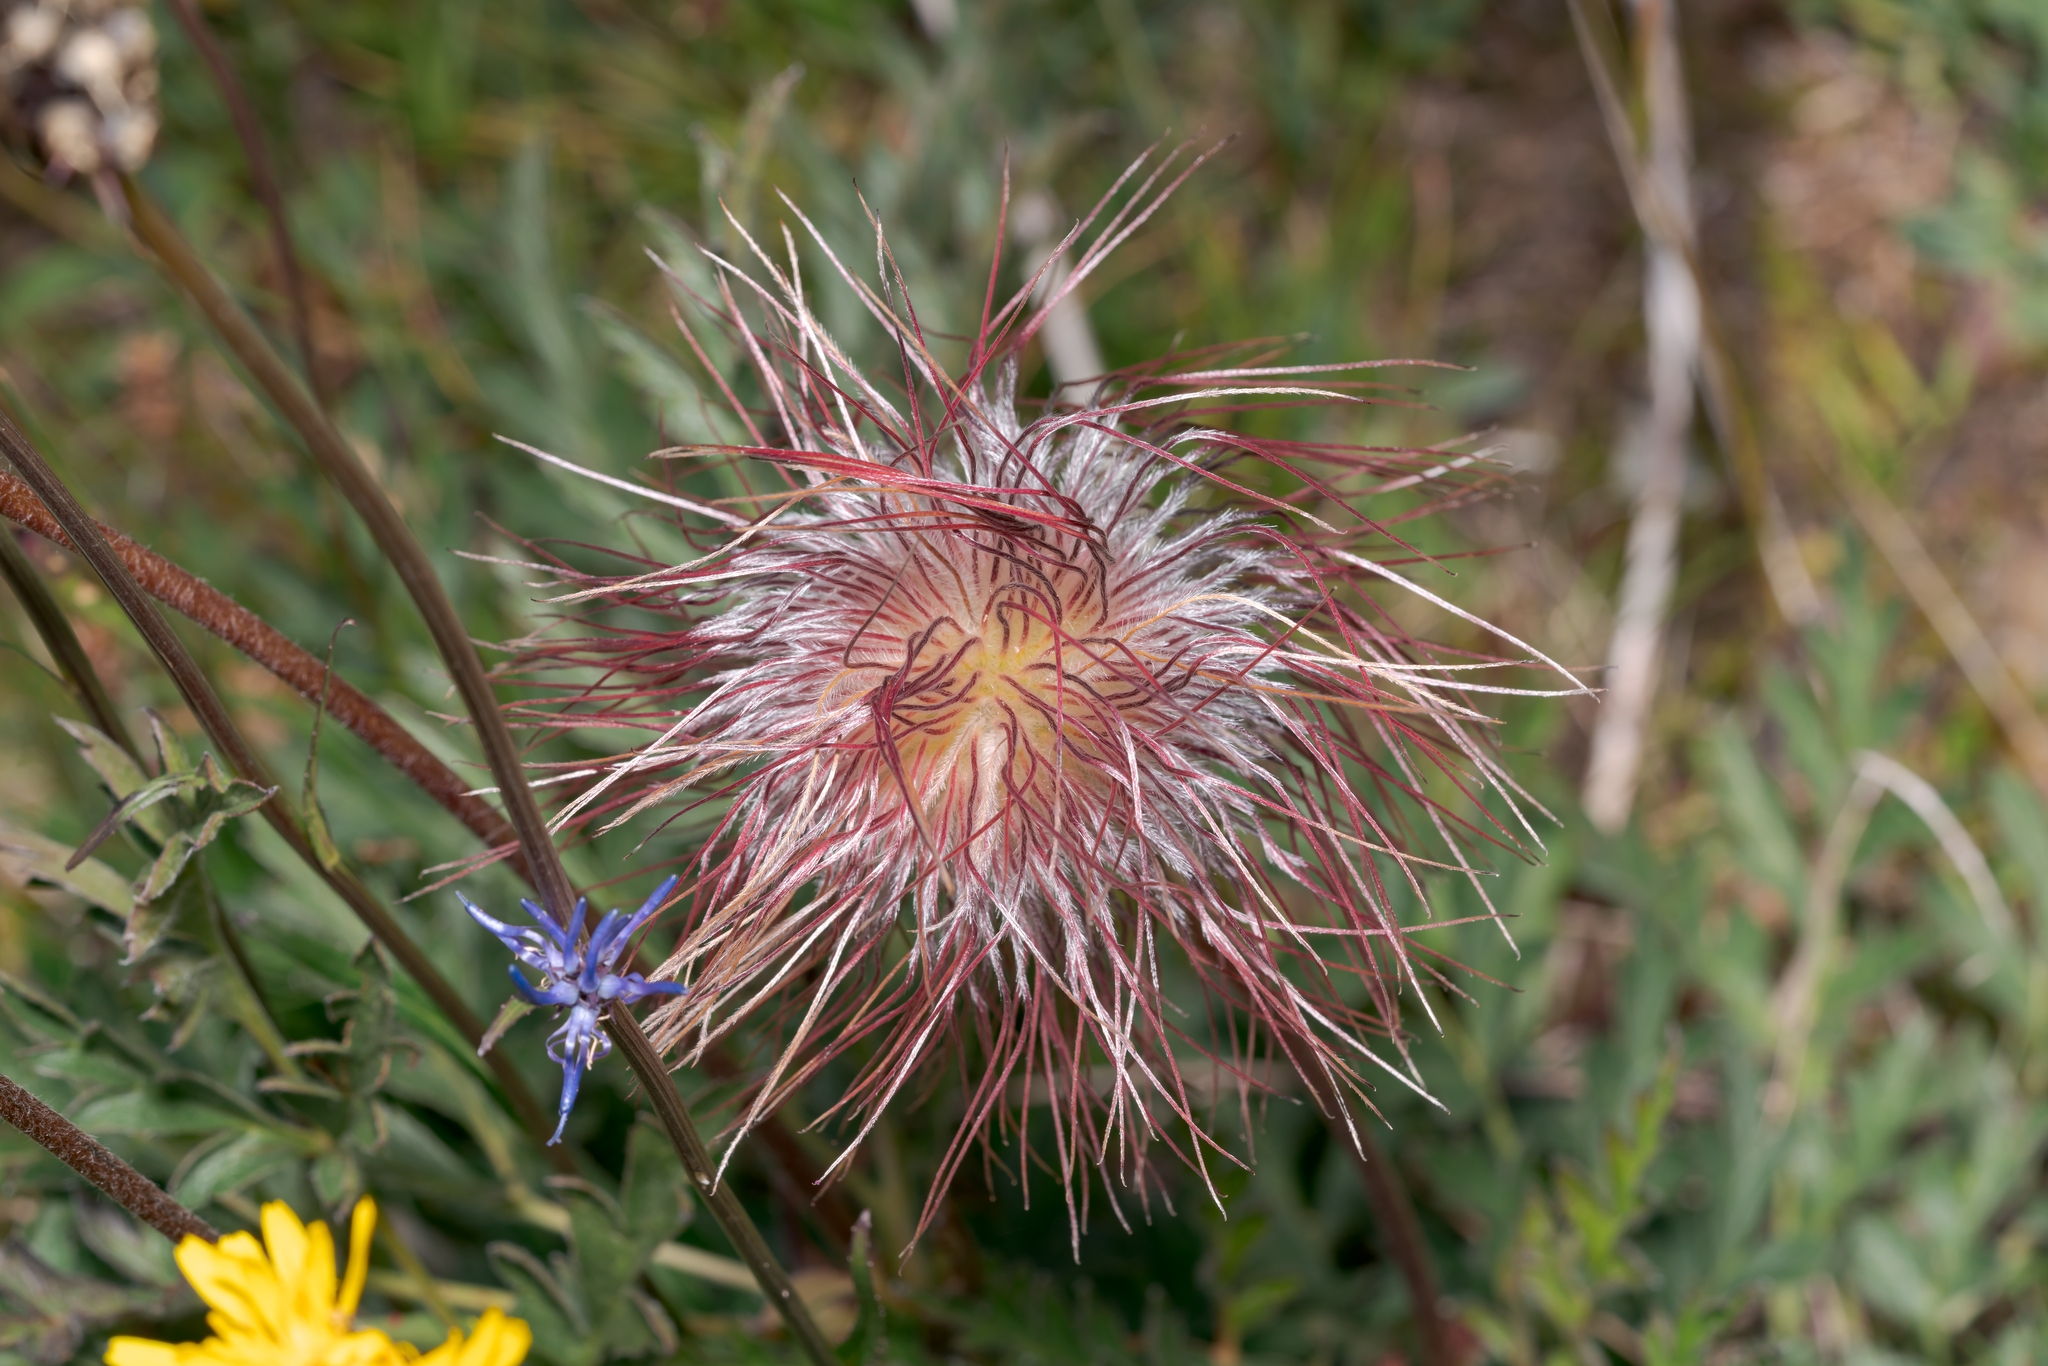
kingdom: Plantae
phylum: Tracheophyta
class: Magnoliopsida
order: Ranunculales
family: Ranunculaceae
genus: Pulsatilla
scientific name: Pulsatilla alpina
